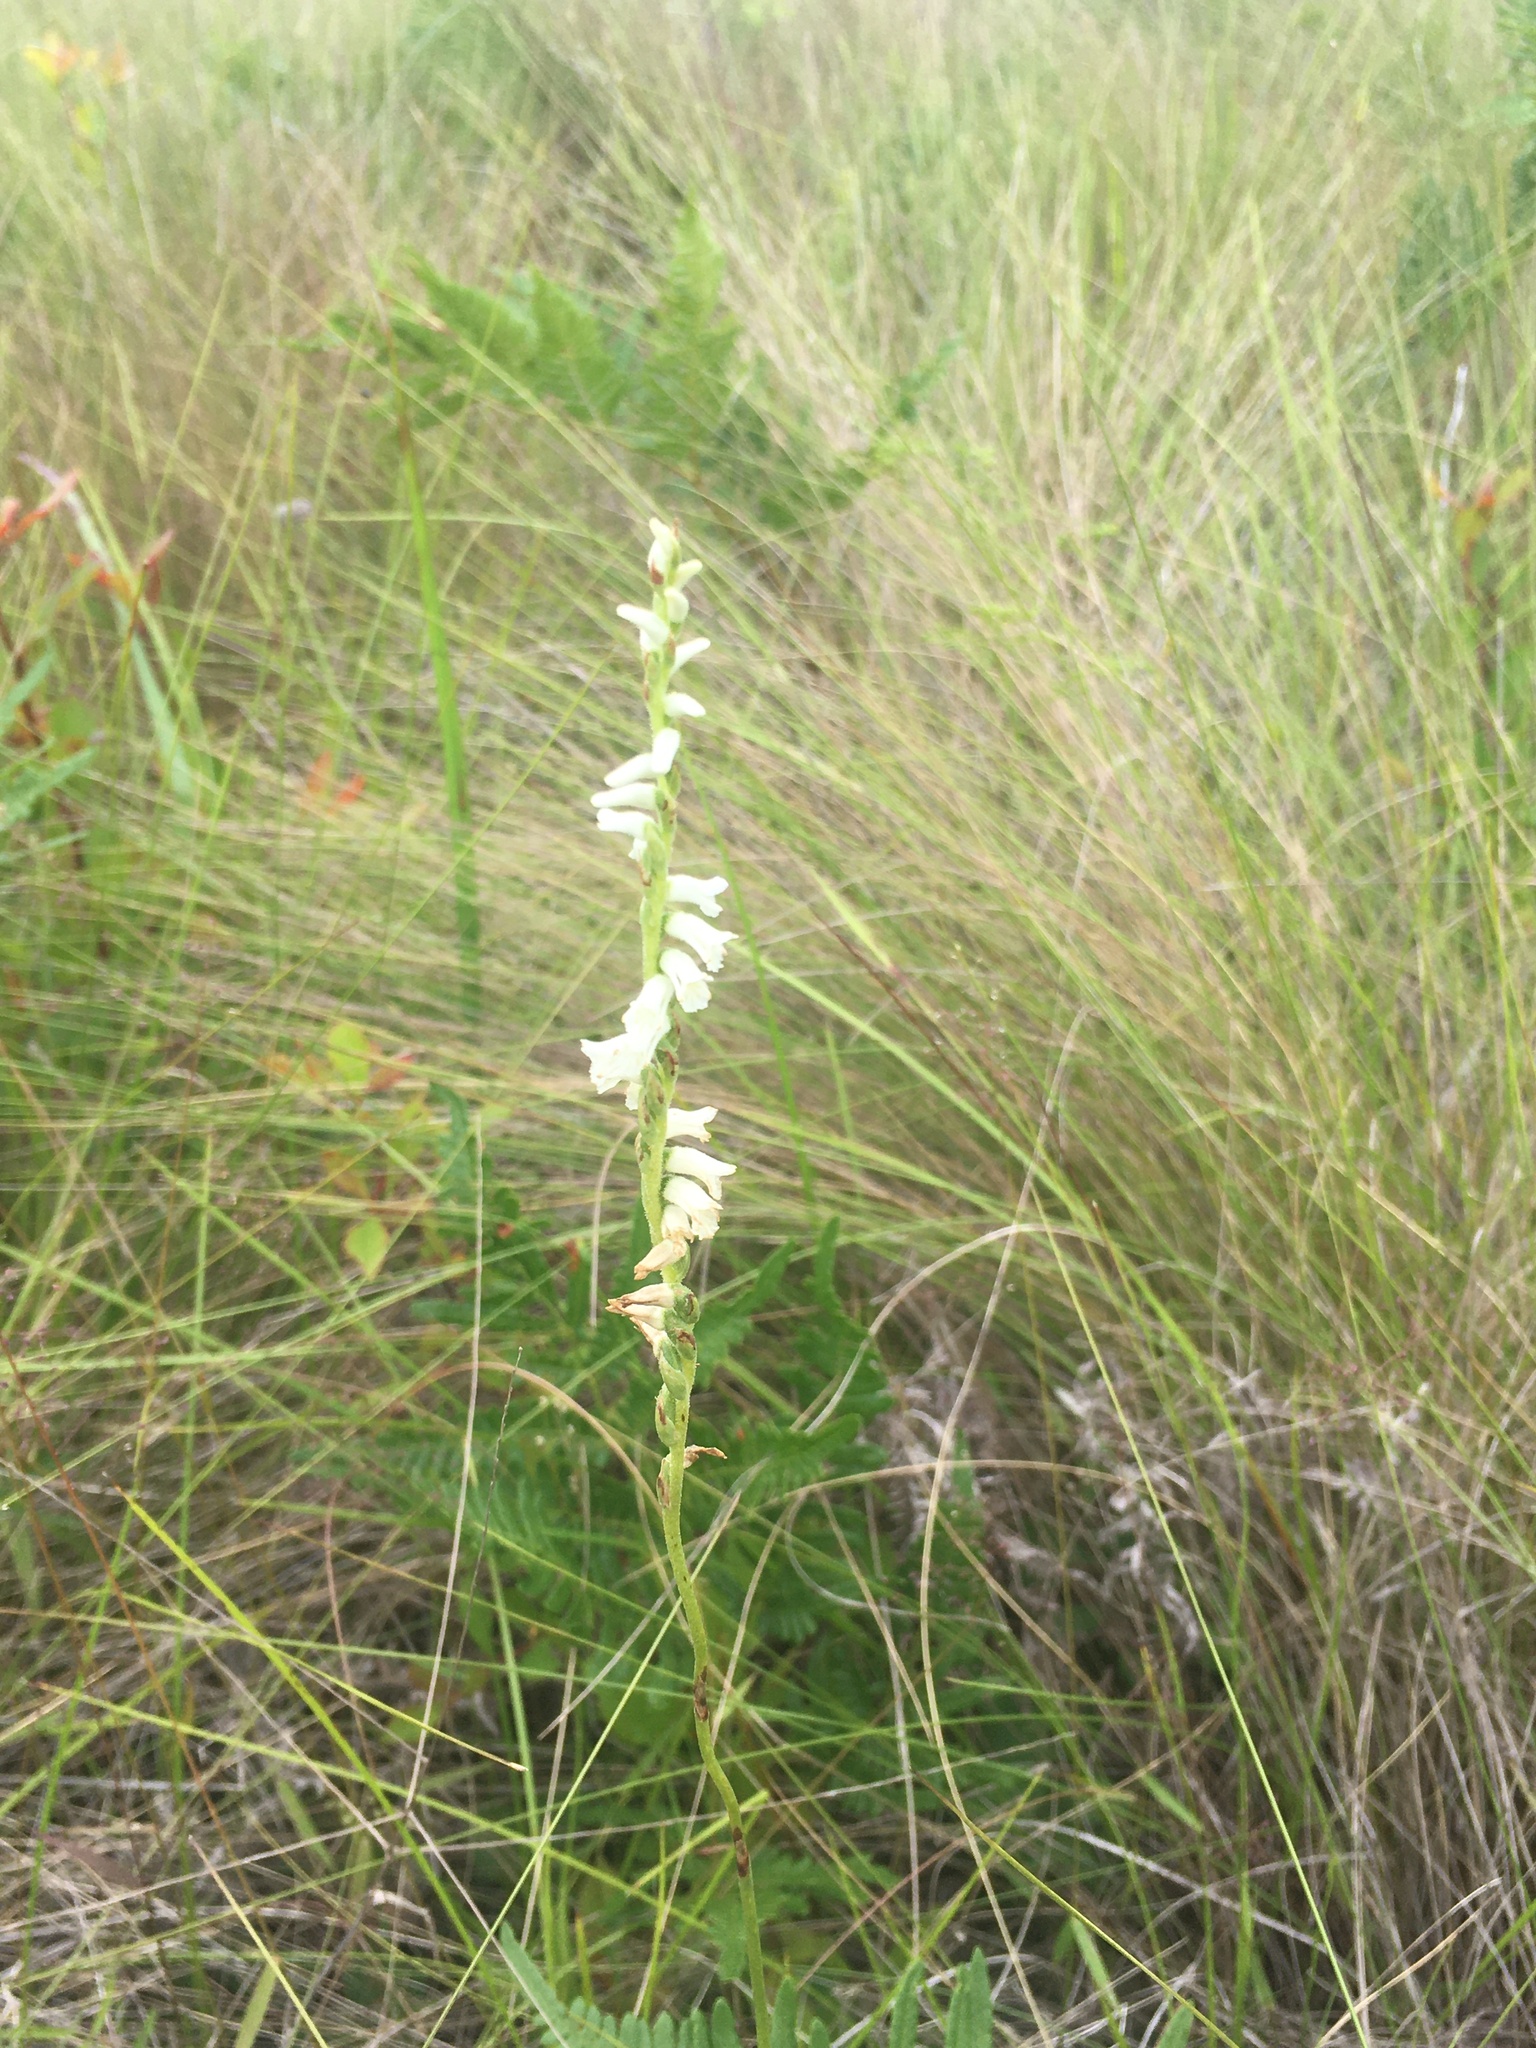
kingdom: Plantae
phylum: Tracheophyta
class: Liliopsida
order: Asparagales
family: Orchidaceae
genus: Spiranthes
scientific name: Spiranthes praecox
